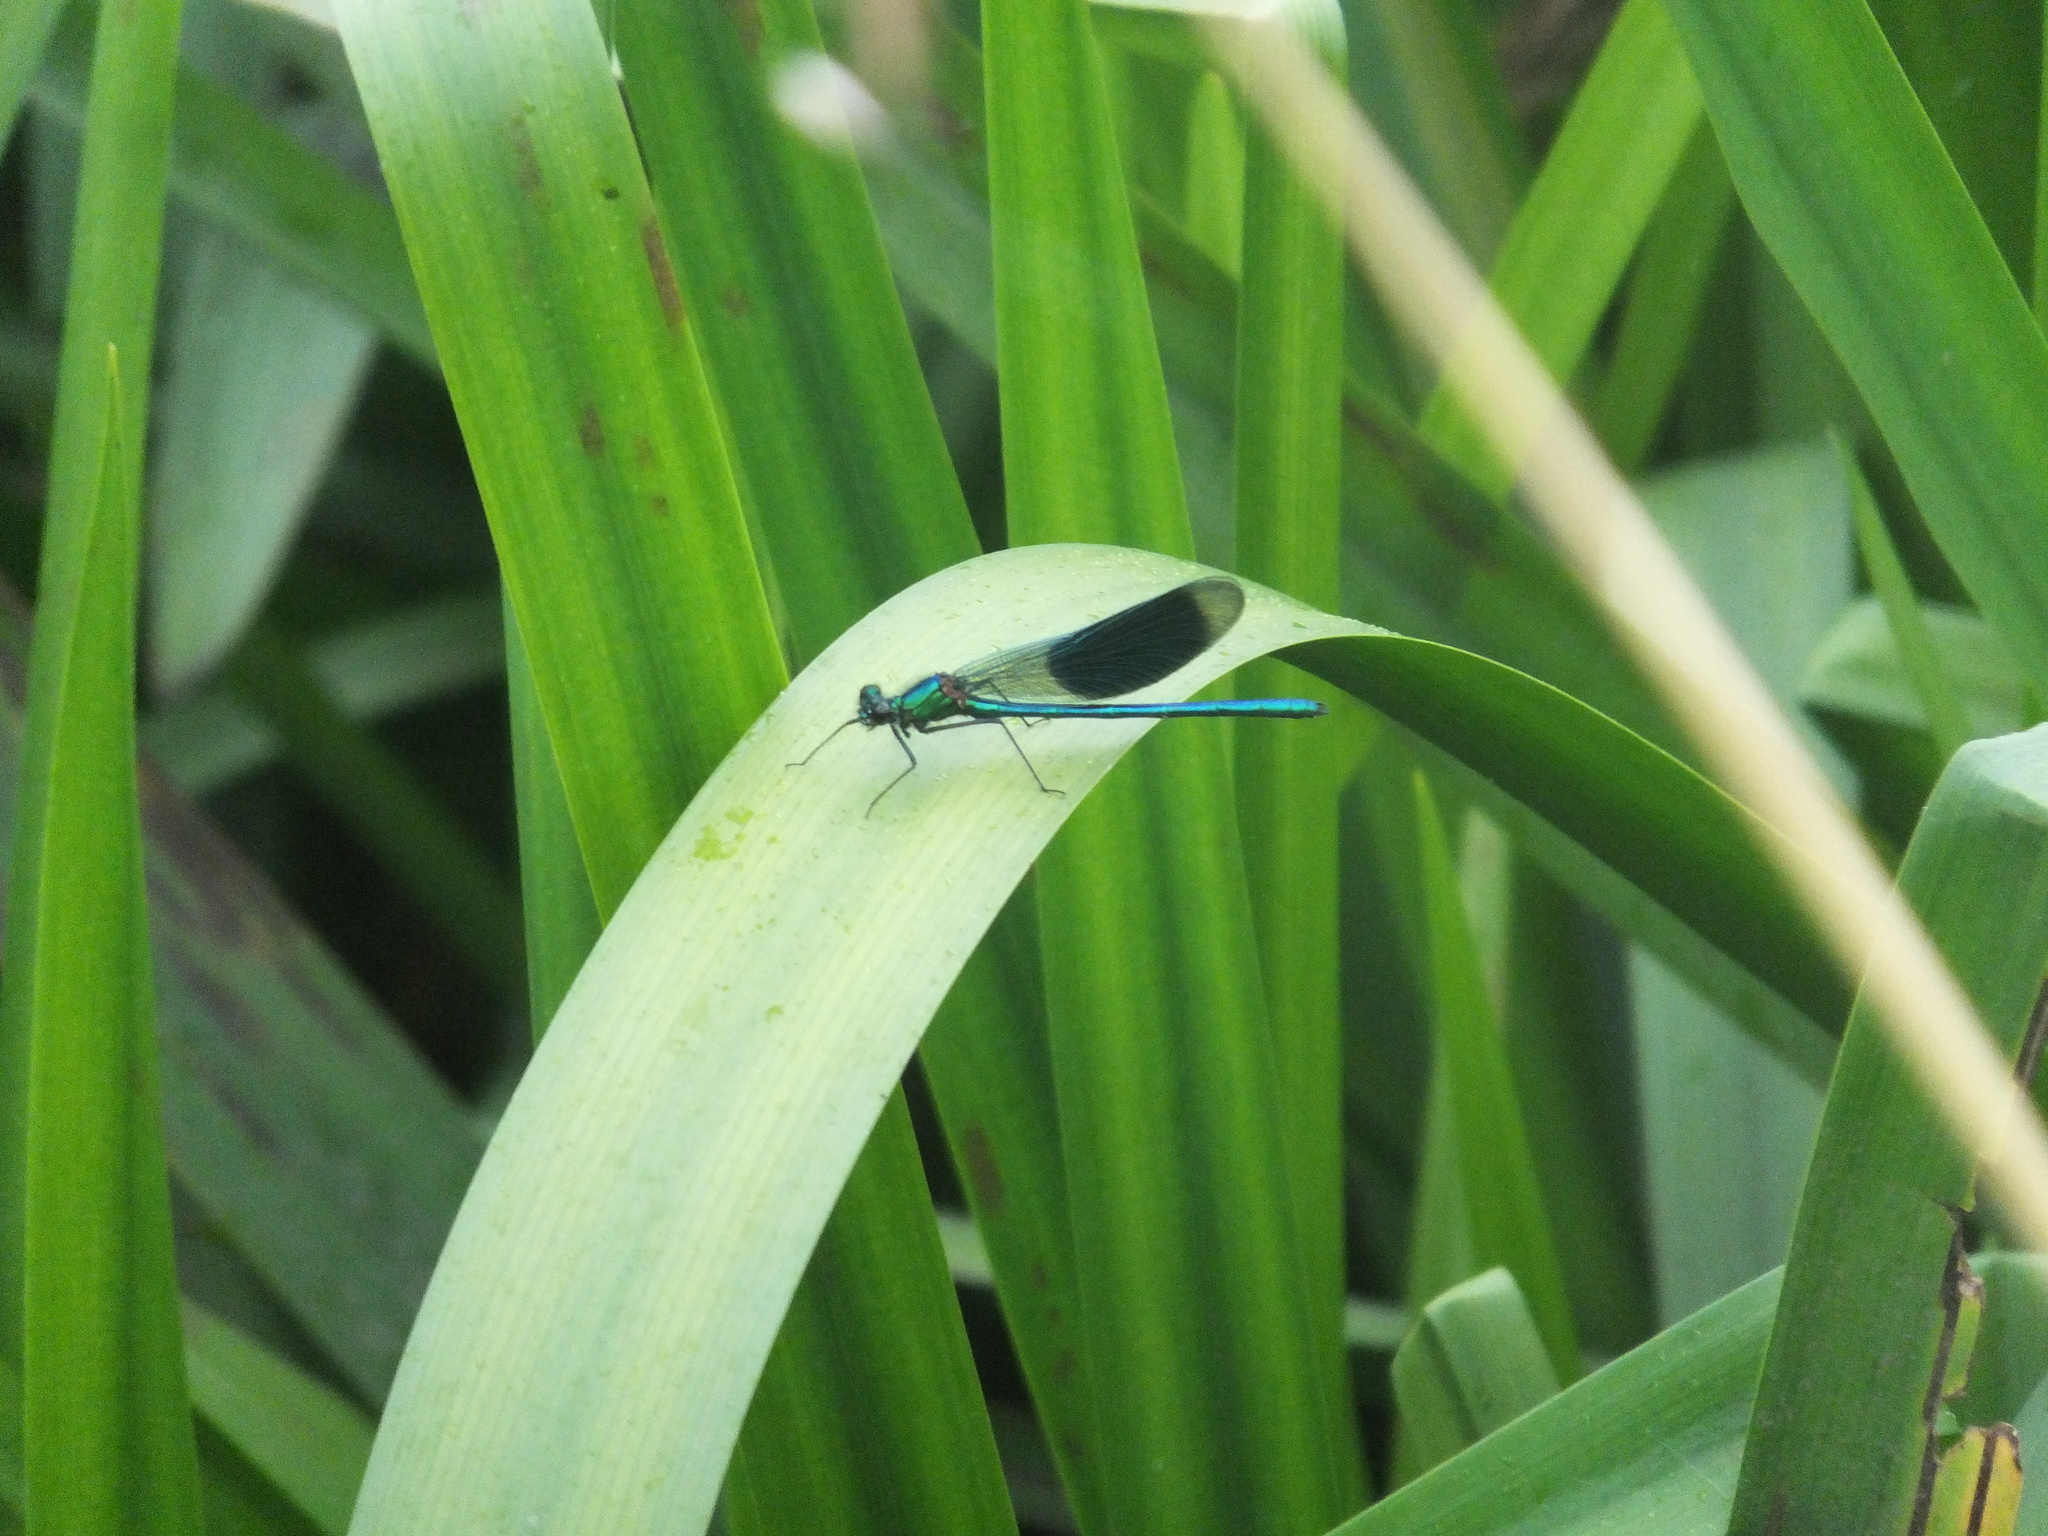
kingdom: Animalia
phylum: Arthropoda
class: Insecta
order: Odonata
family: Calopterygidae
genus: Calopteryx
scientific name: Calopteryx splendens
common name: Banded demoiselle
